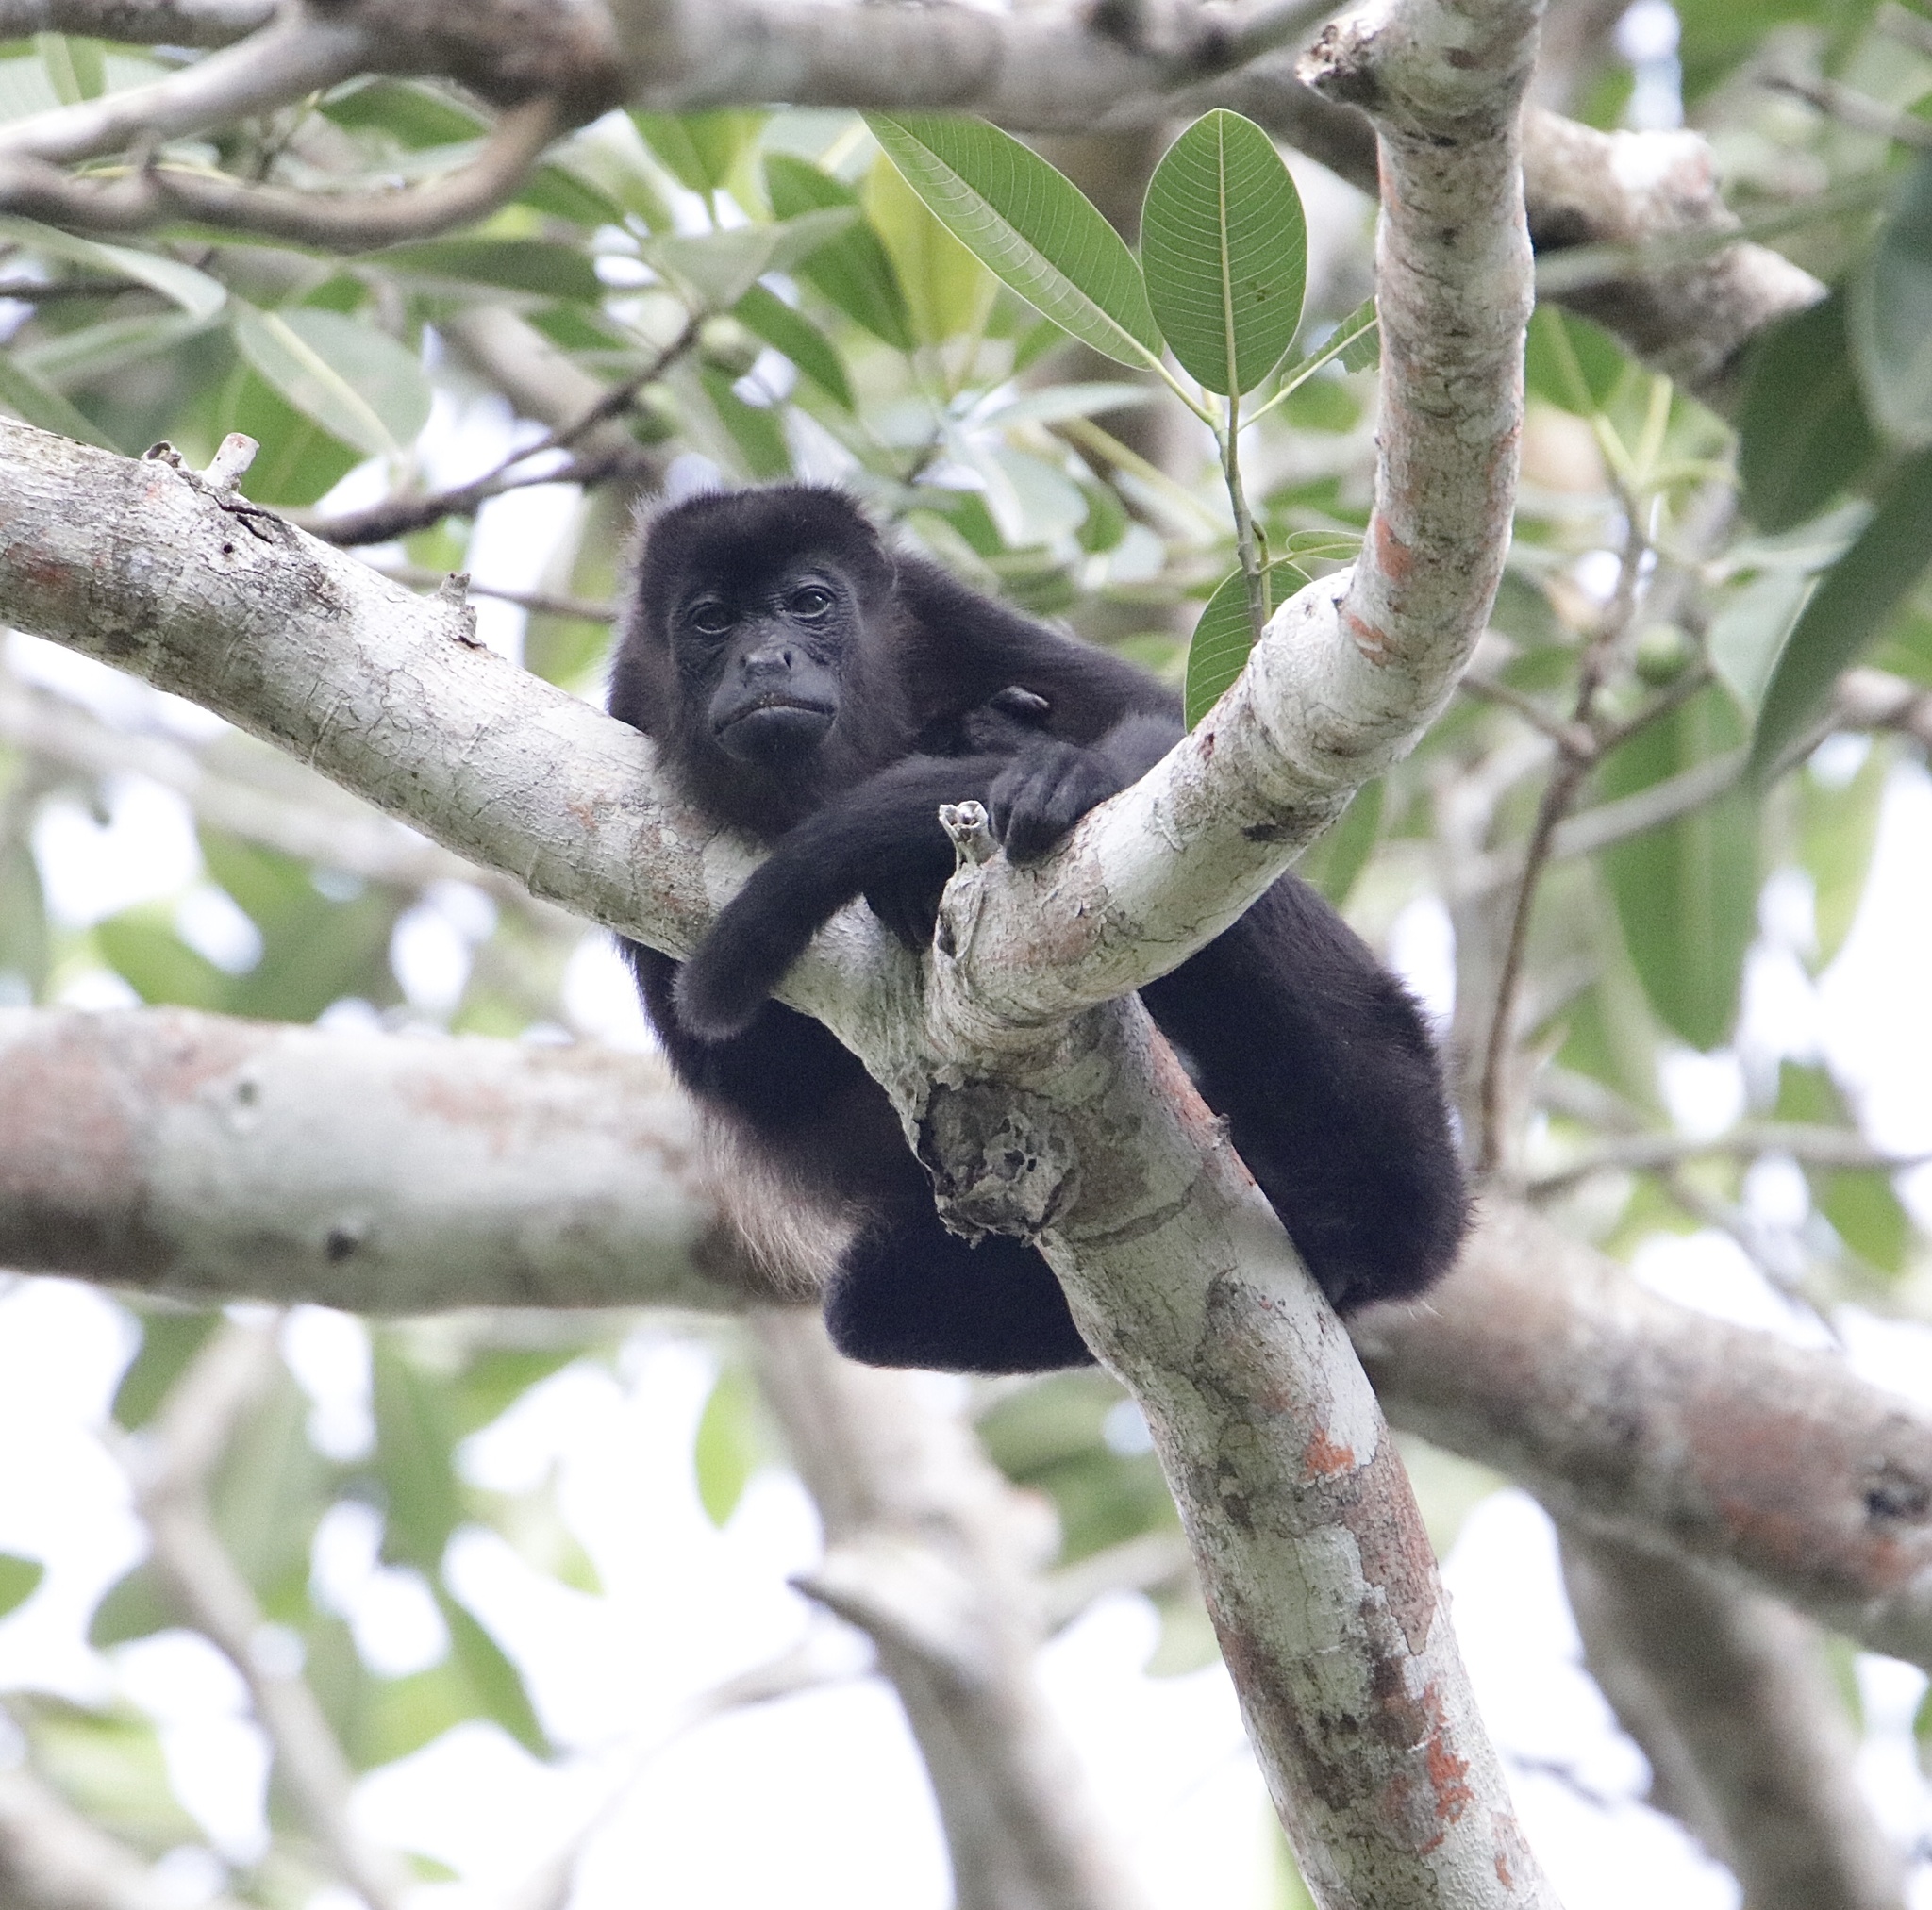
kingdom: Animalia
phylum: Chordata
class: Mammalia
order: Primates
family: Atelidae
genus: Alouatta
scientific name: Alouatta palliata
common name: Mantled howler
